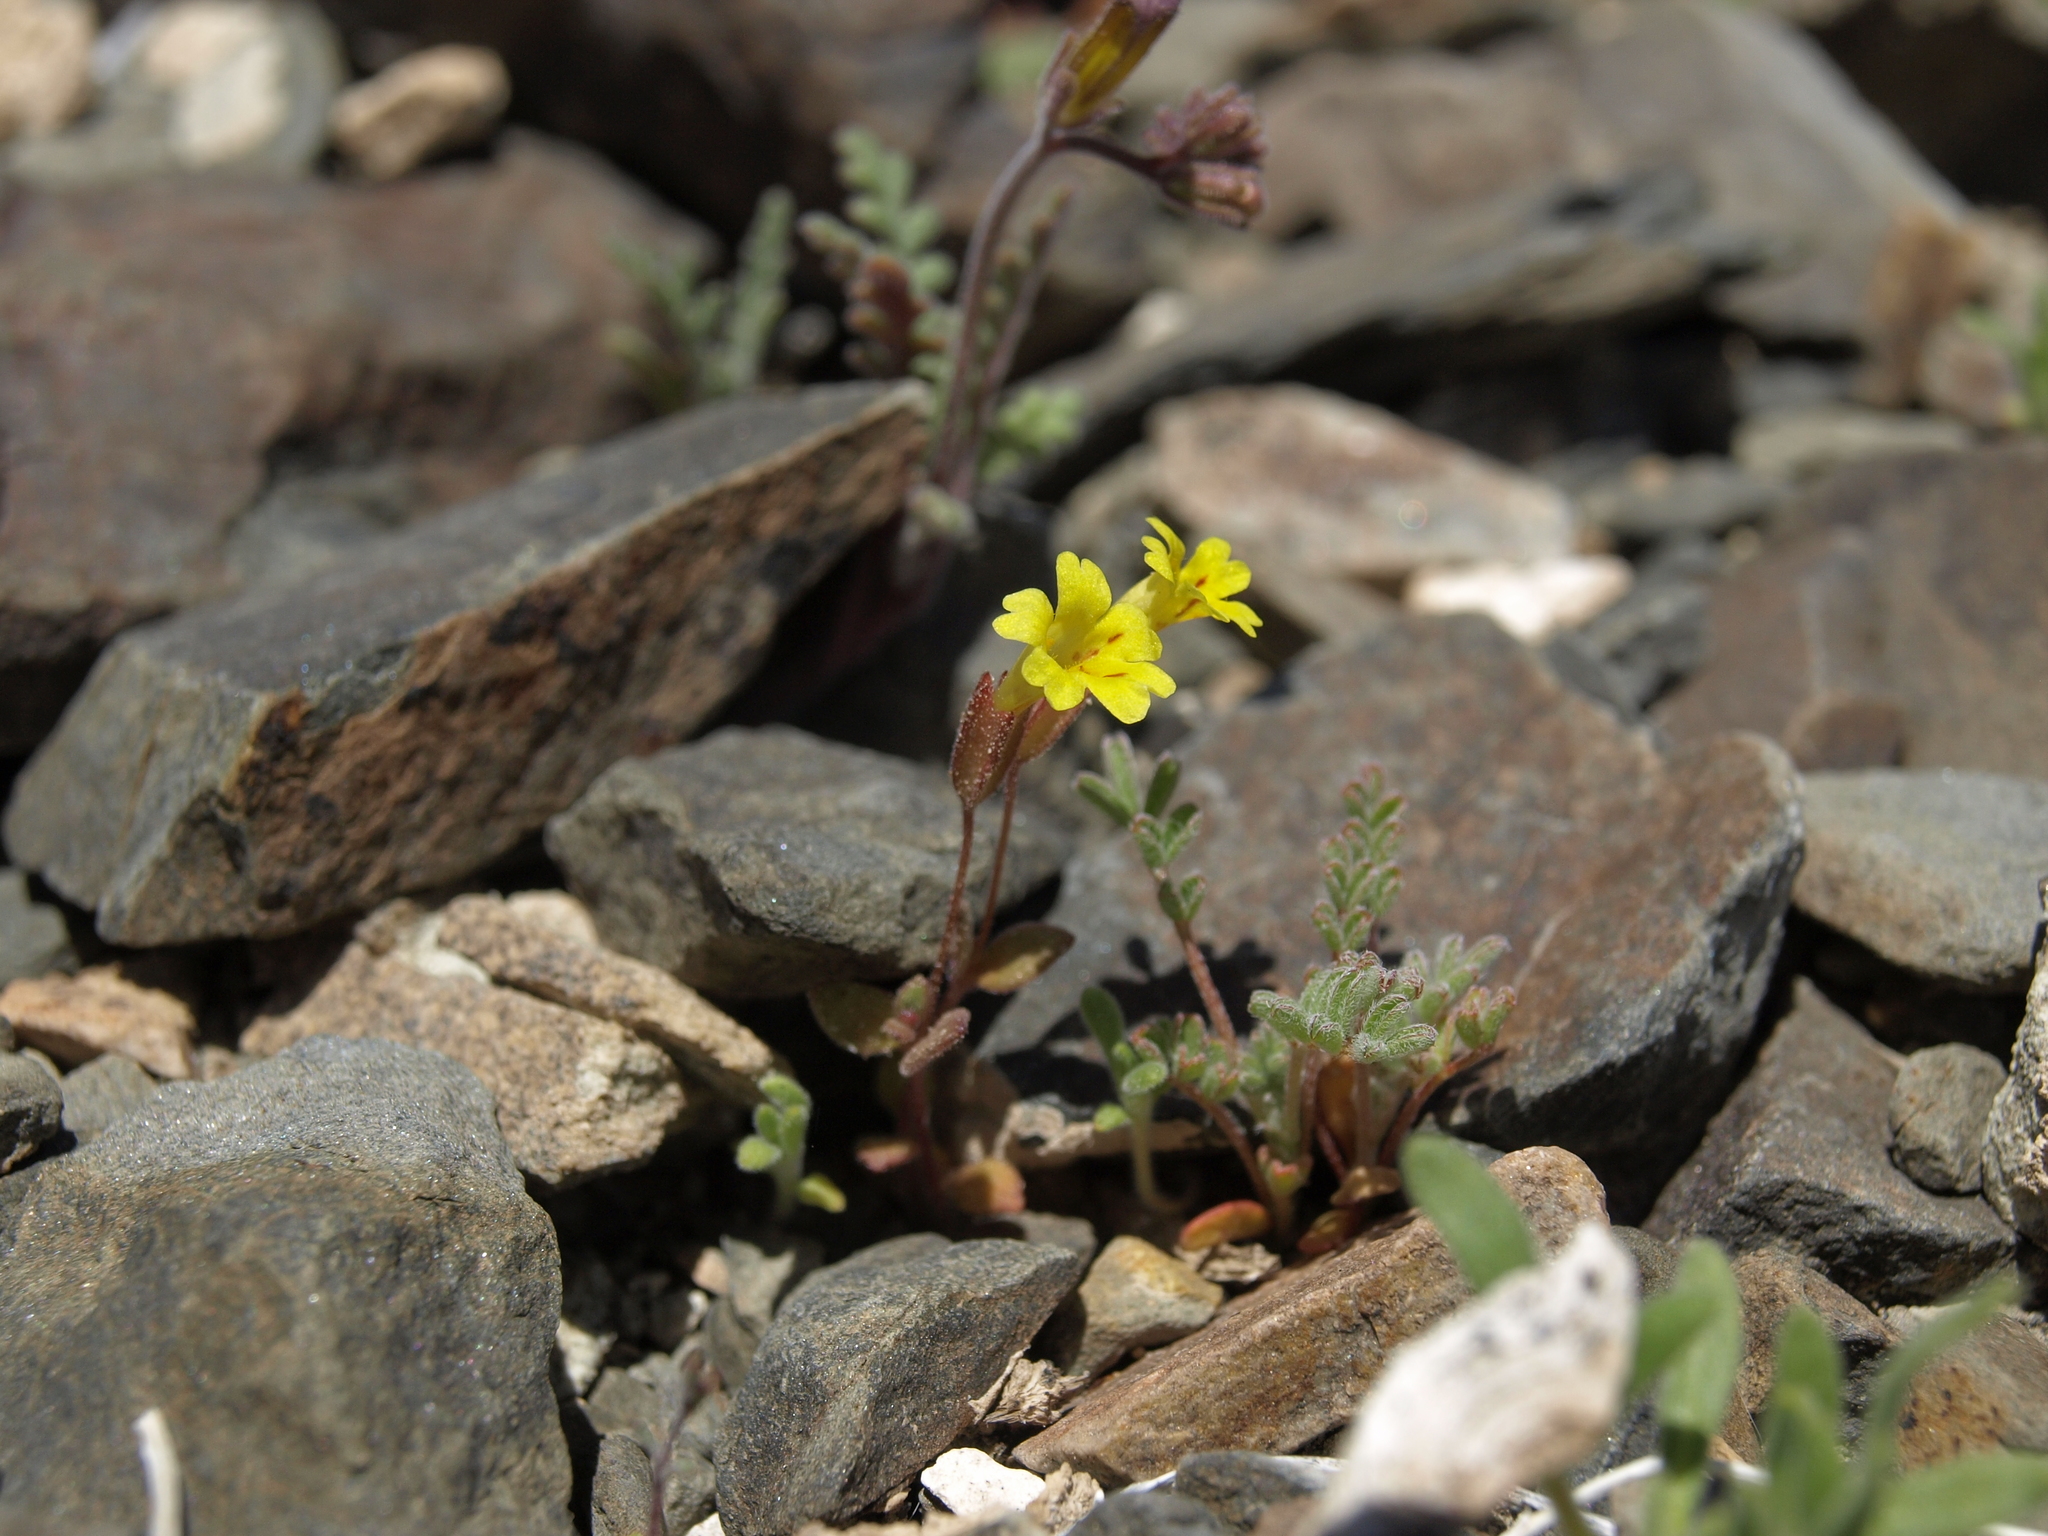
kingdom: Plantae
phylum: Tracheophyta
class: Magnoliopsida
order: Lamiales
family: Phrymaceae
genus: Erythranthe
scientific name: Erythranthe calcicola
